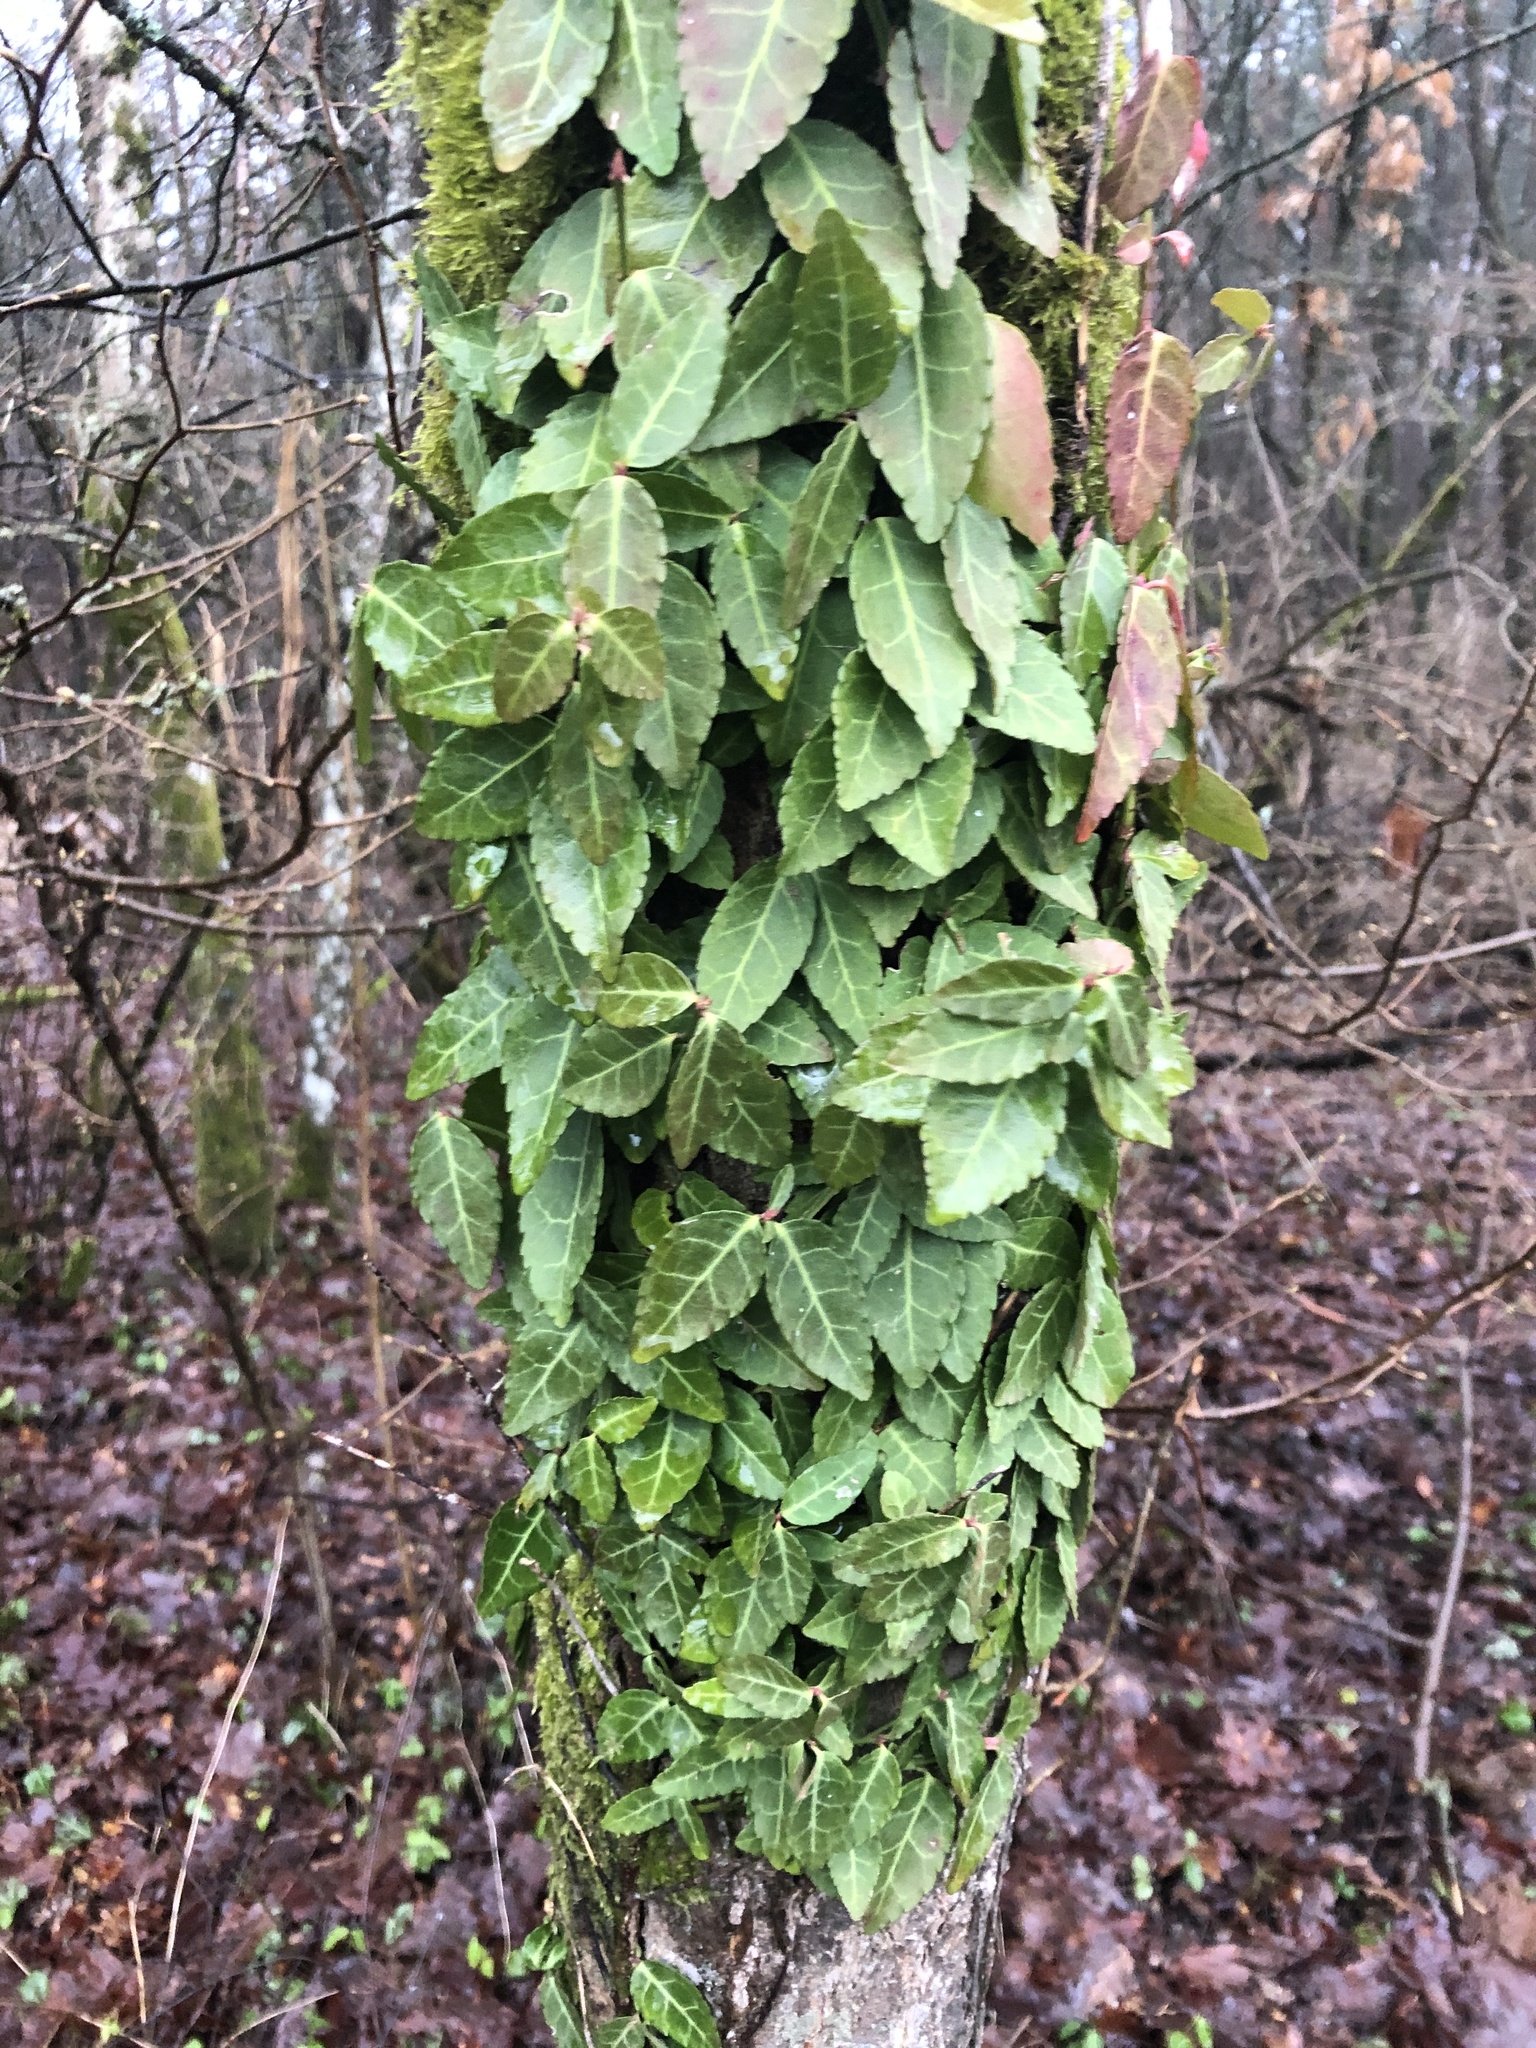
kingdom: Plantae
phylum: Tracheophyta
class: Magnoliopsida
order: Celastrales
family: Celastraceae
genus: Euonymus
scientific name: Euonymus fortunei
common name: Climbing euonymus
